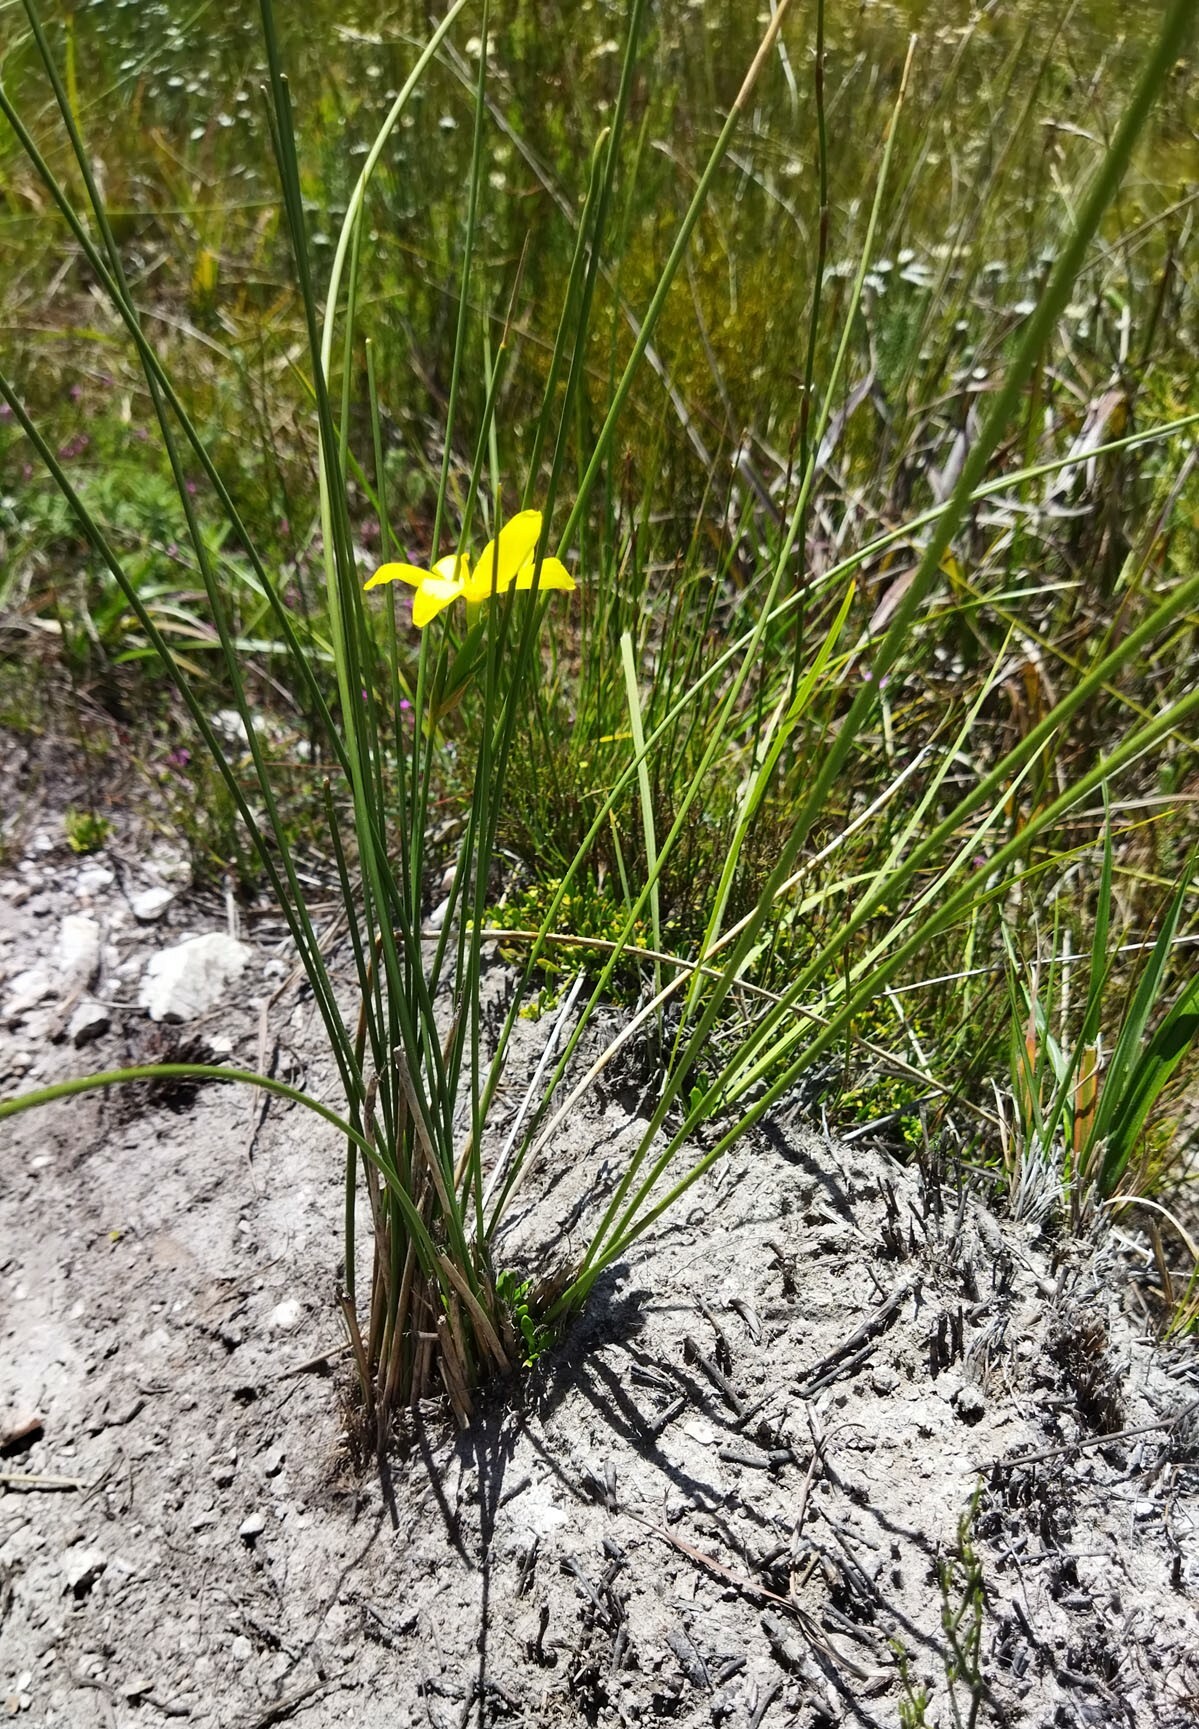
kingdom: Plantae
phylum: Tracheophyta
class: Liliopsida
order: Asparagales
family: Iridaceae
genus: Bobartia
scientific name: Bobartia aphylla
